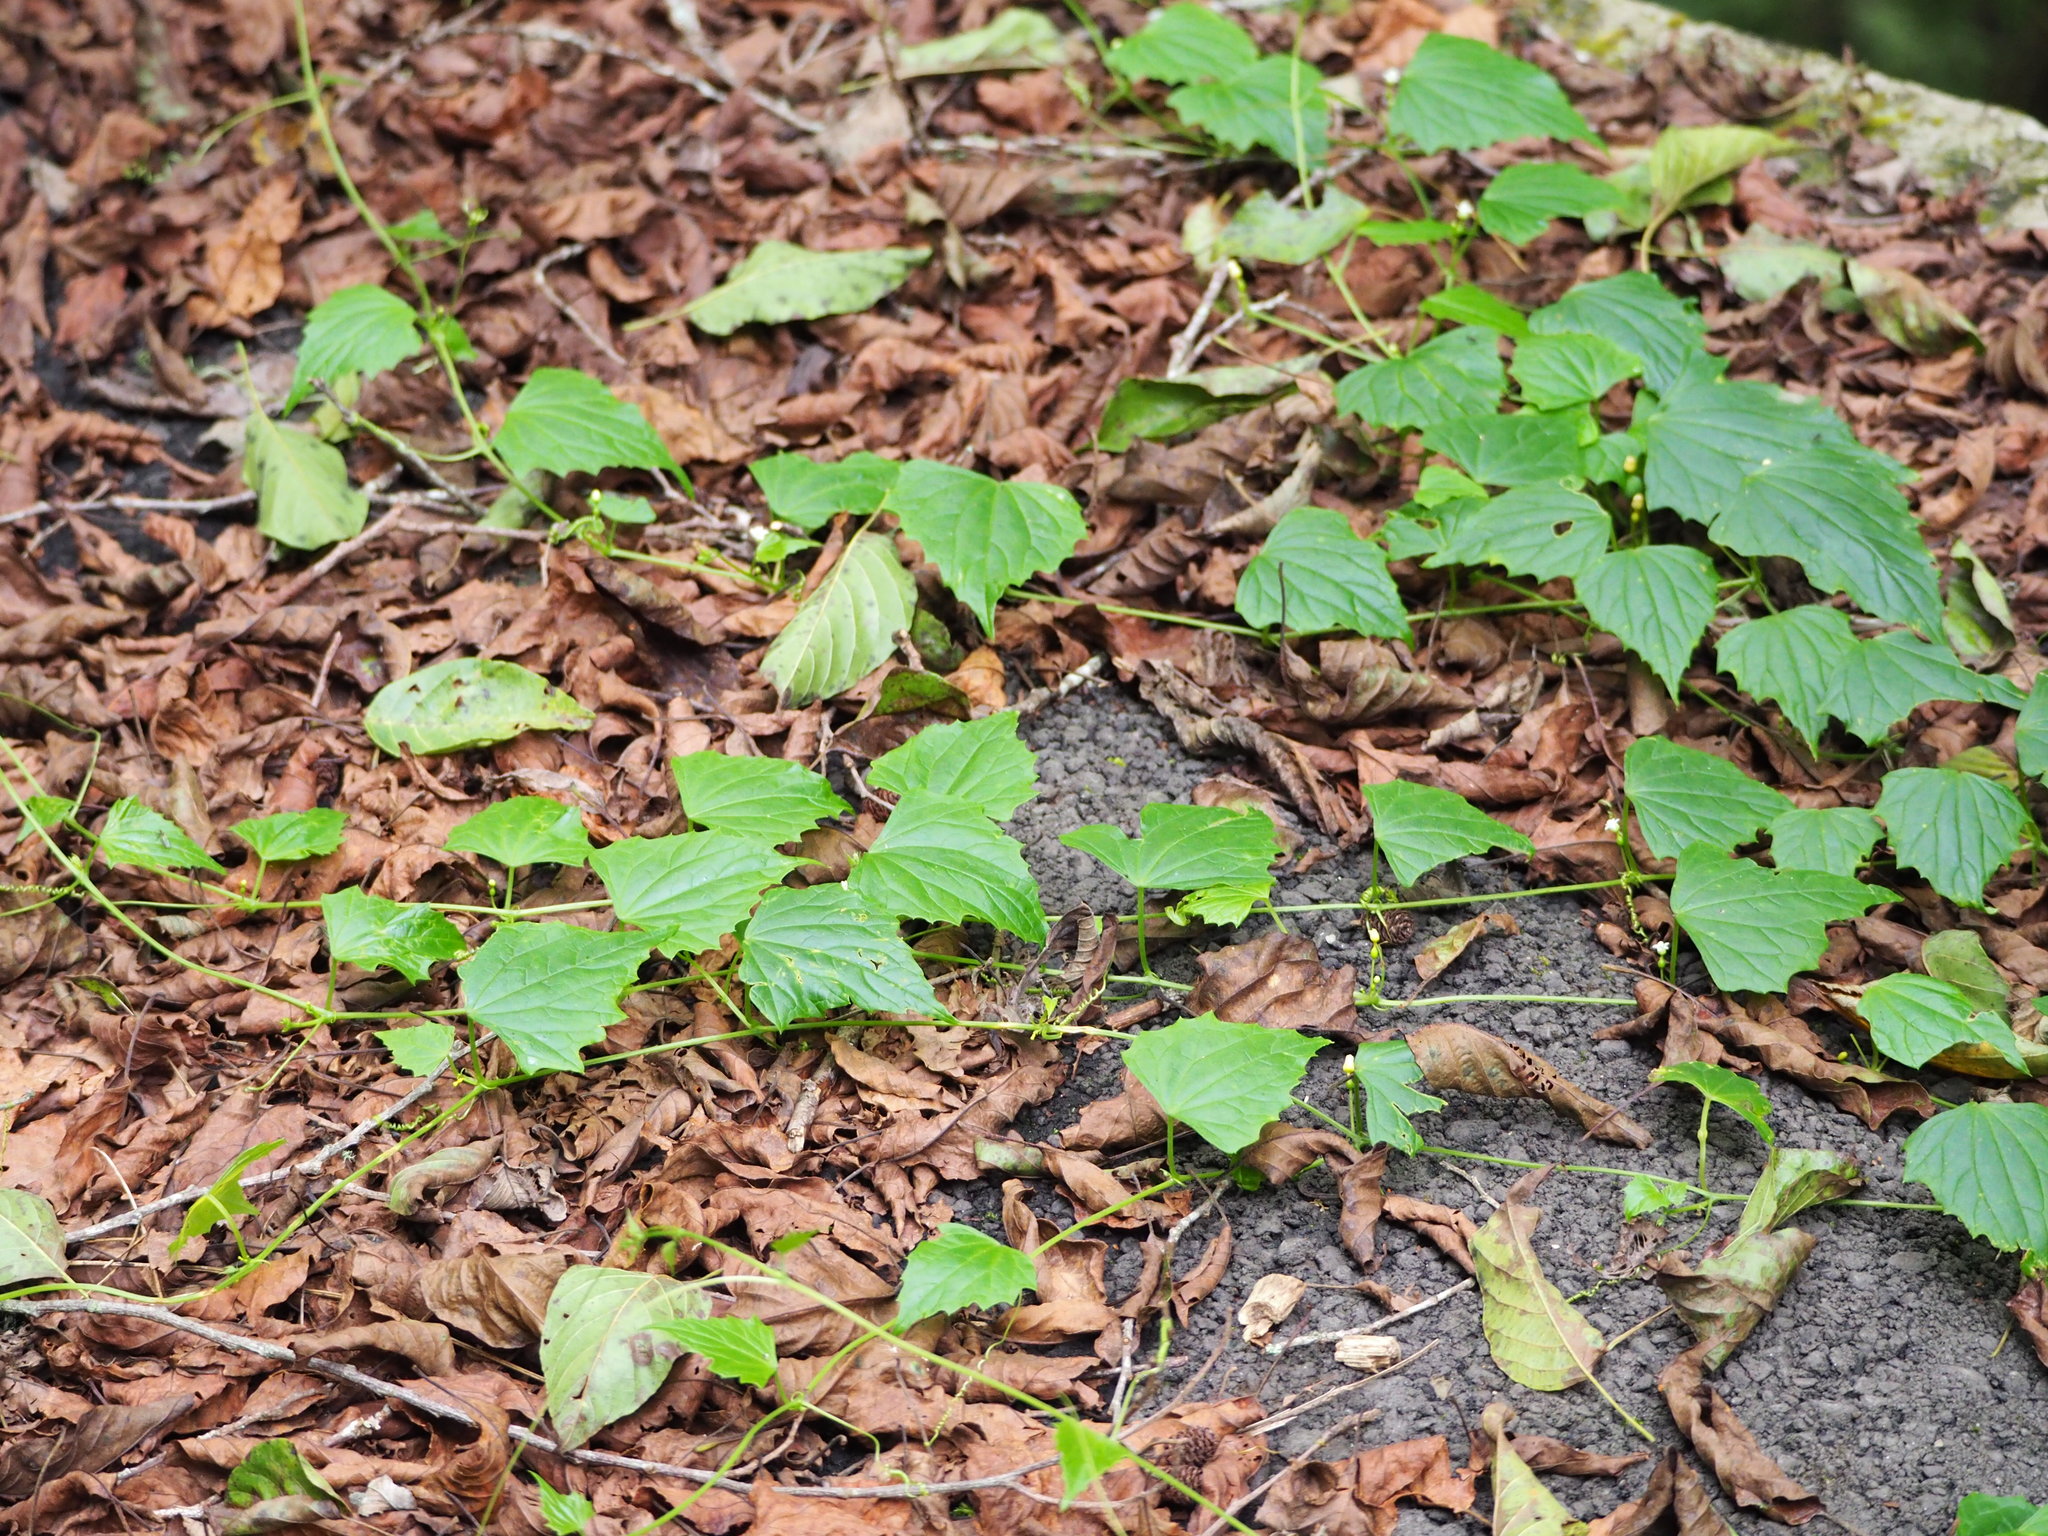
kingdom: Plantae
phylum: Tracheophyta
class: Magnoliopsida
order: Cucurbitales
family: Cucurbitaceae
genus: Zehneria
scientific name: Zehneria guamensis
